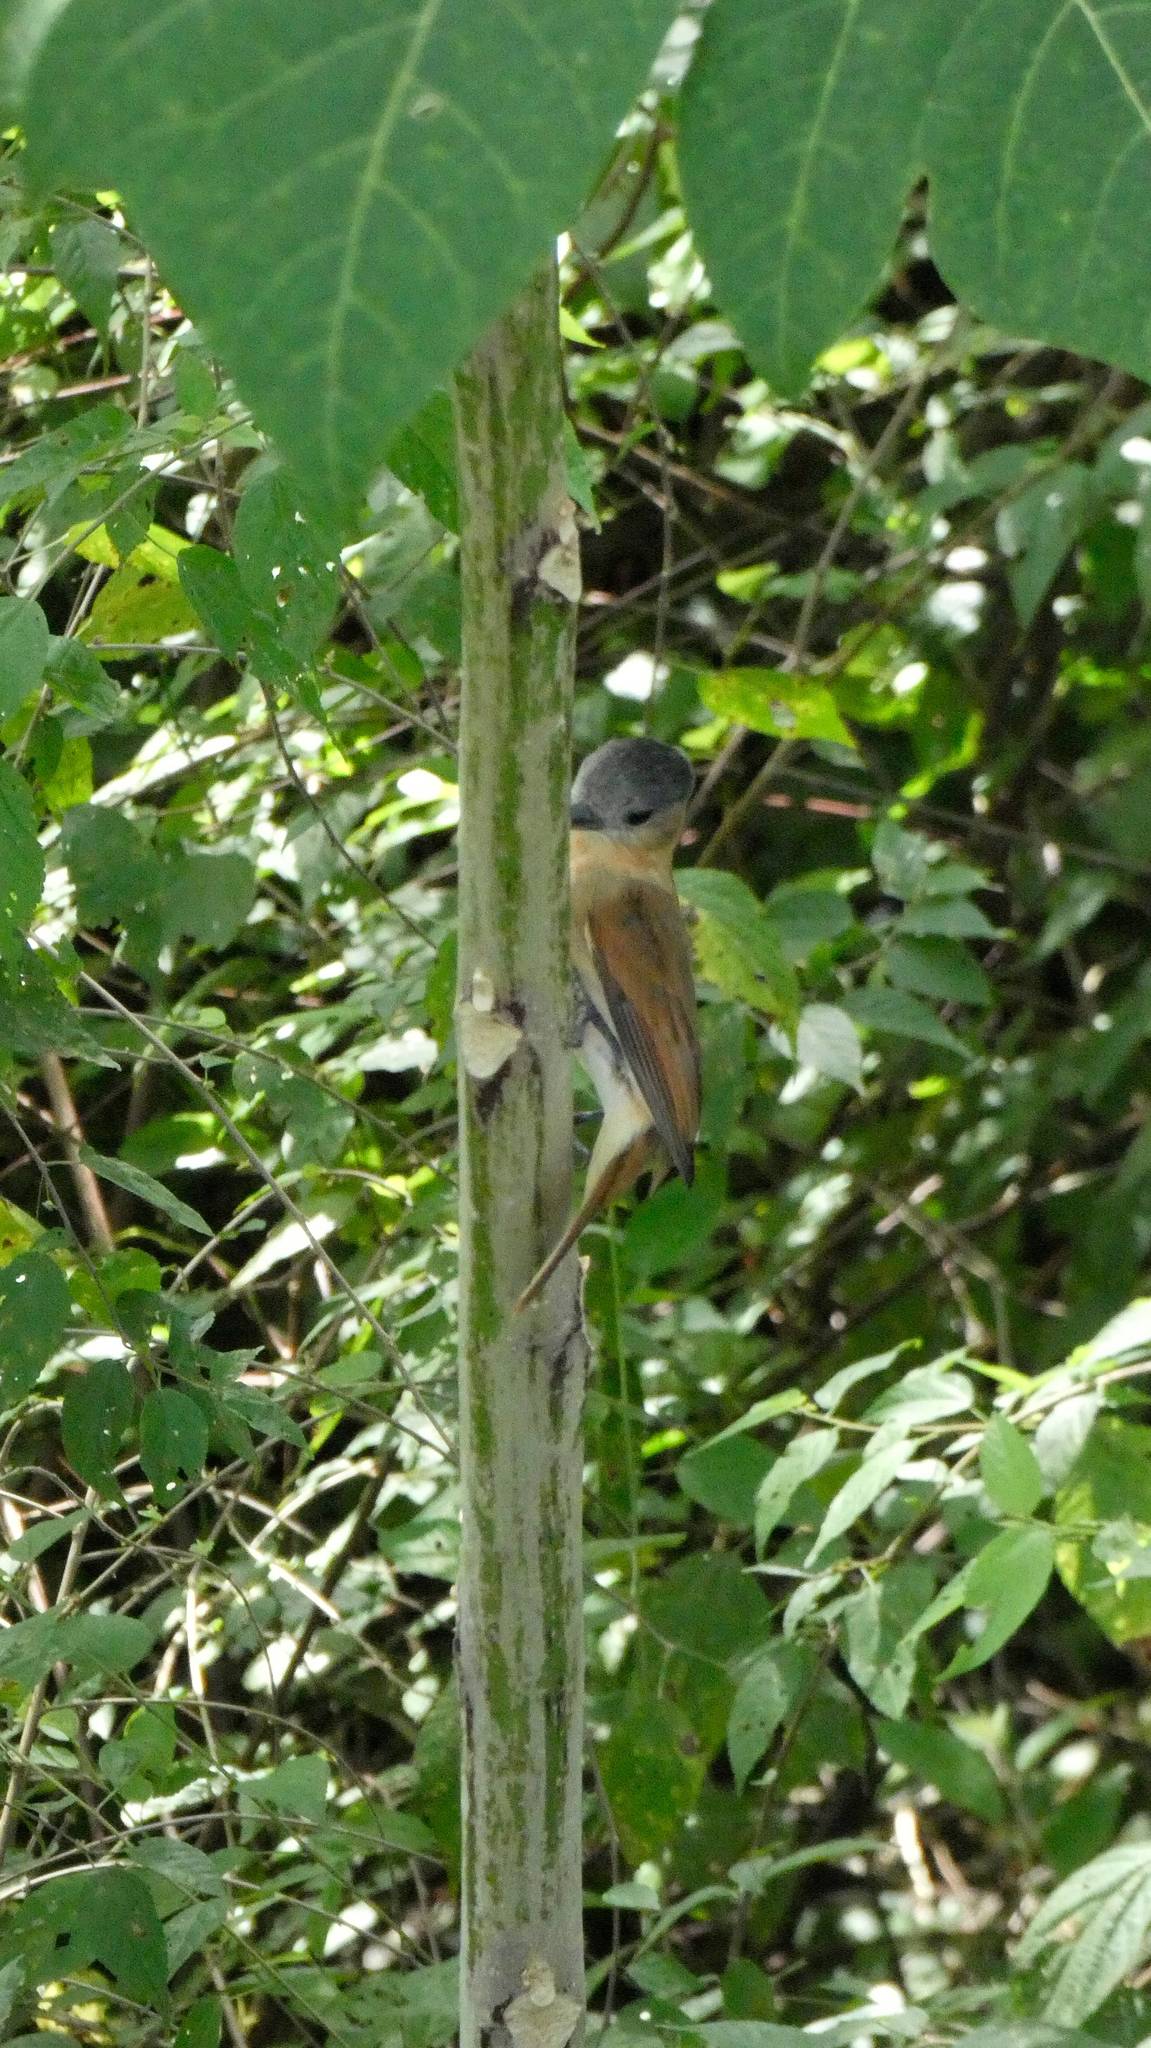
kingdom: Animalia
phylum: Chordata
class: Aves
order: Passeriformes
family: Cotingidae
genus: Pachyramphus
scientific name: Pachyramphus aglaiae
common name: Rose-throated becard
